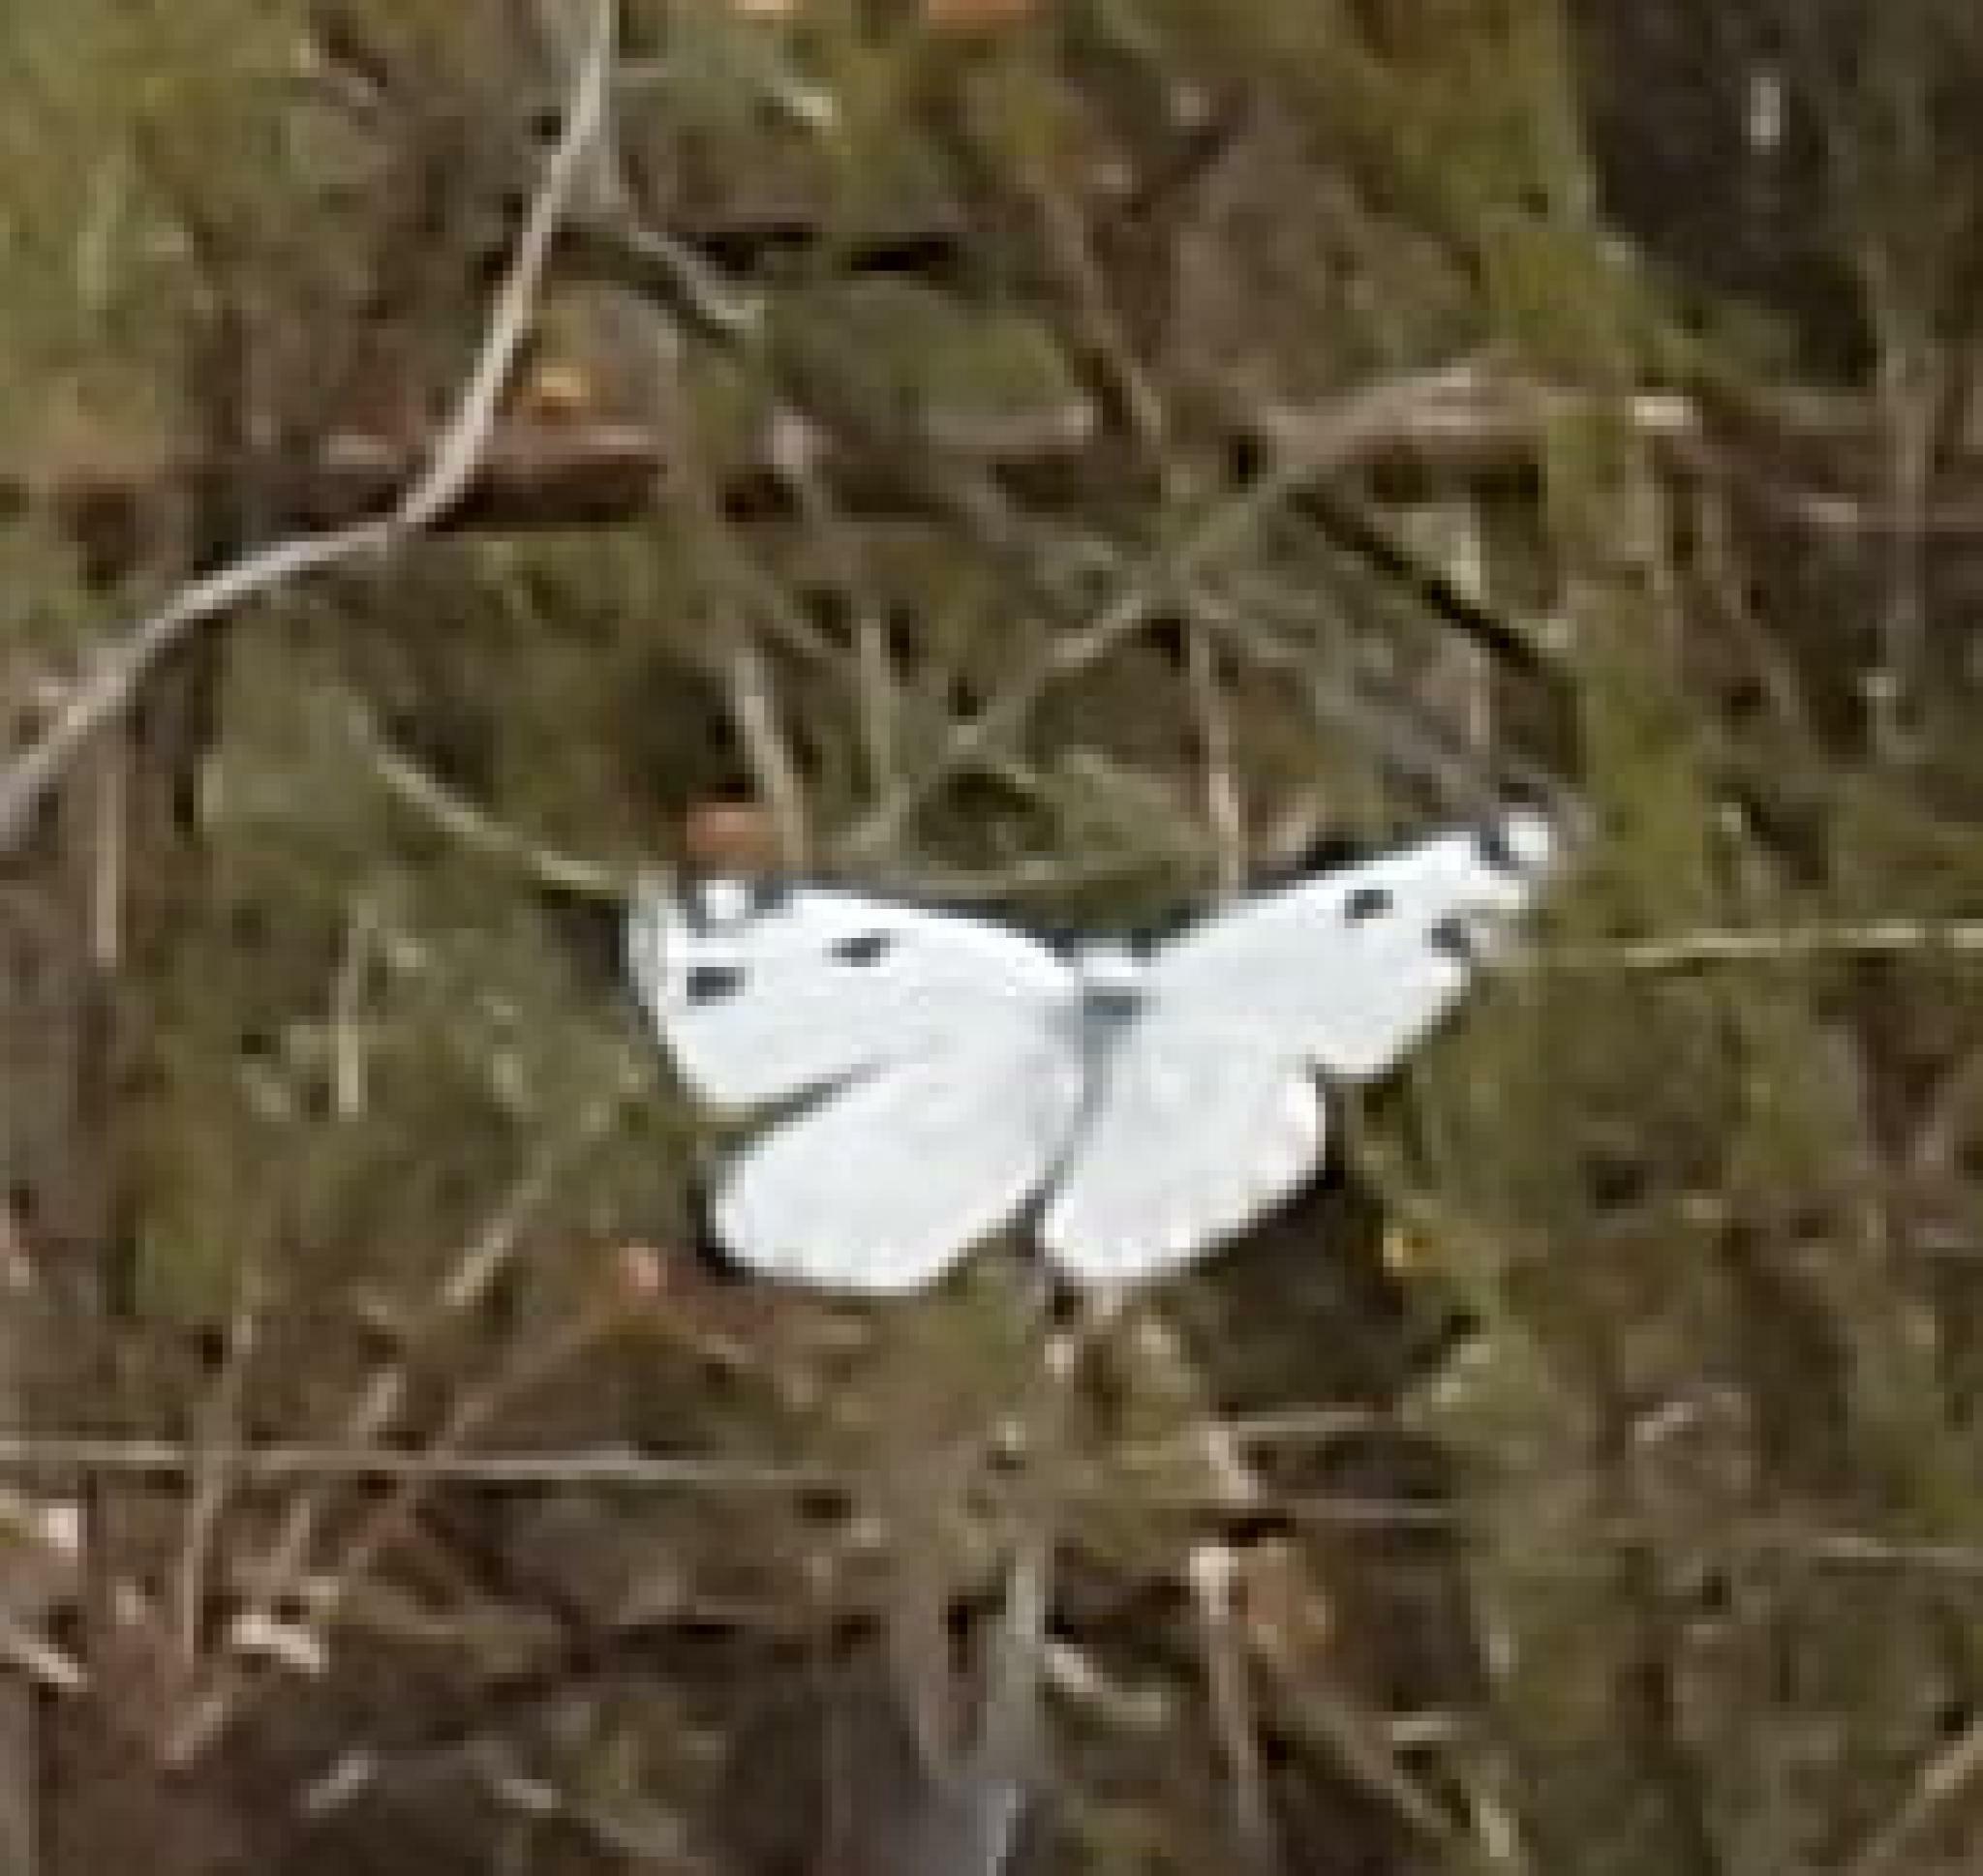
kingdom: Animalia
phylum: Arthropoda
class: Insecta
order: Lepidoptera
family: Pieridae
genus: Pontia
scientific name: Pontia helice
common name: Meadow white
